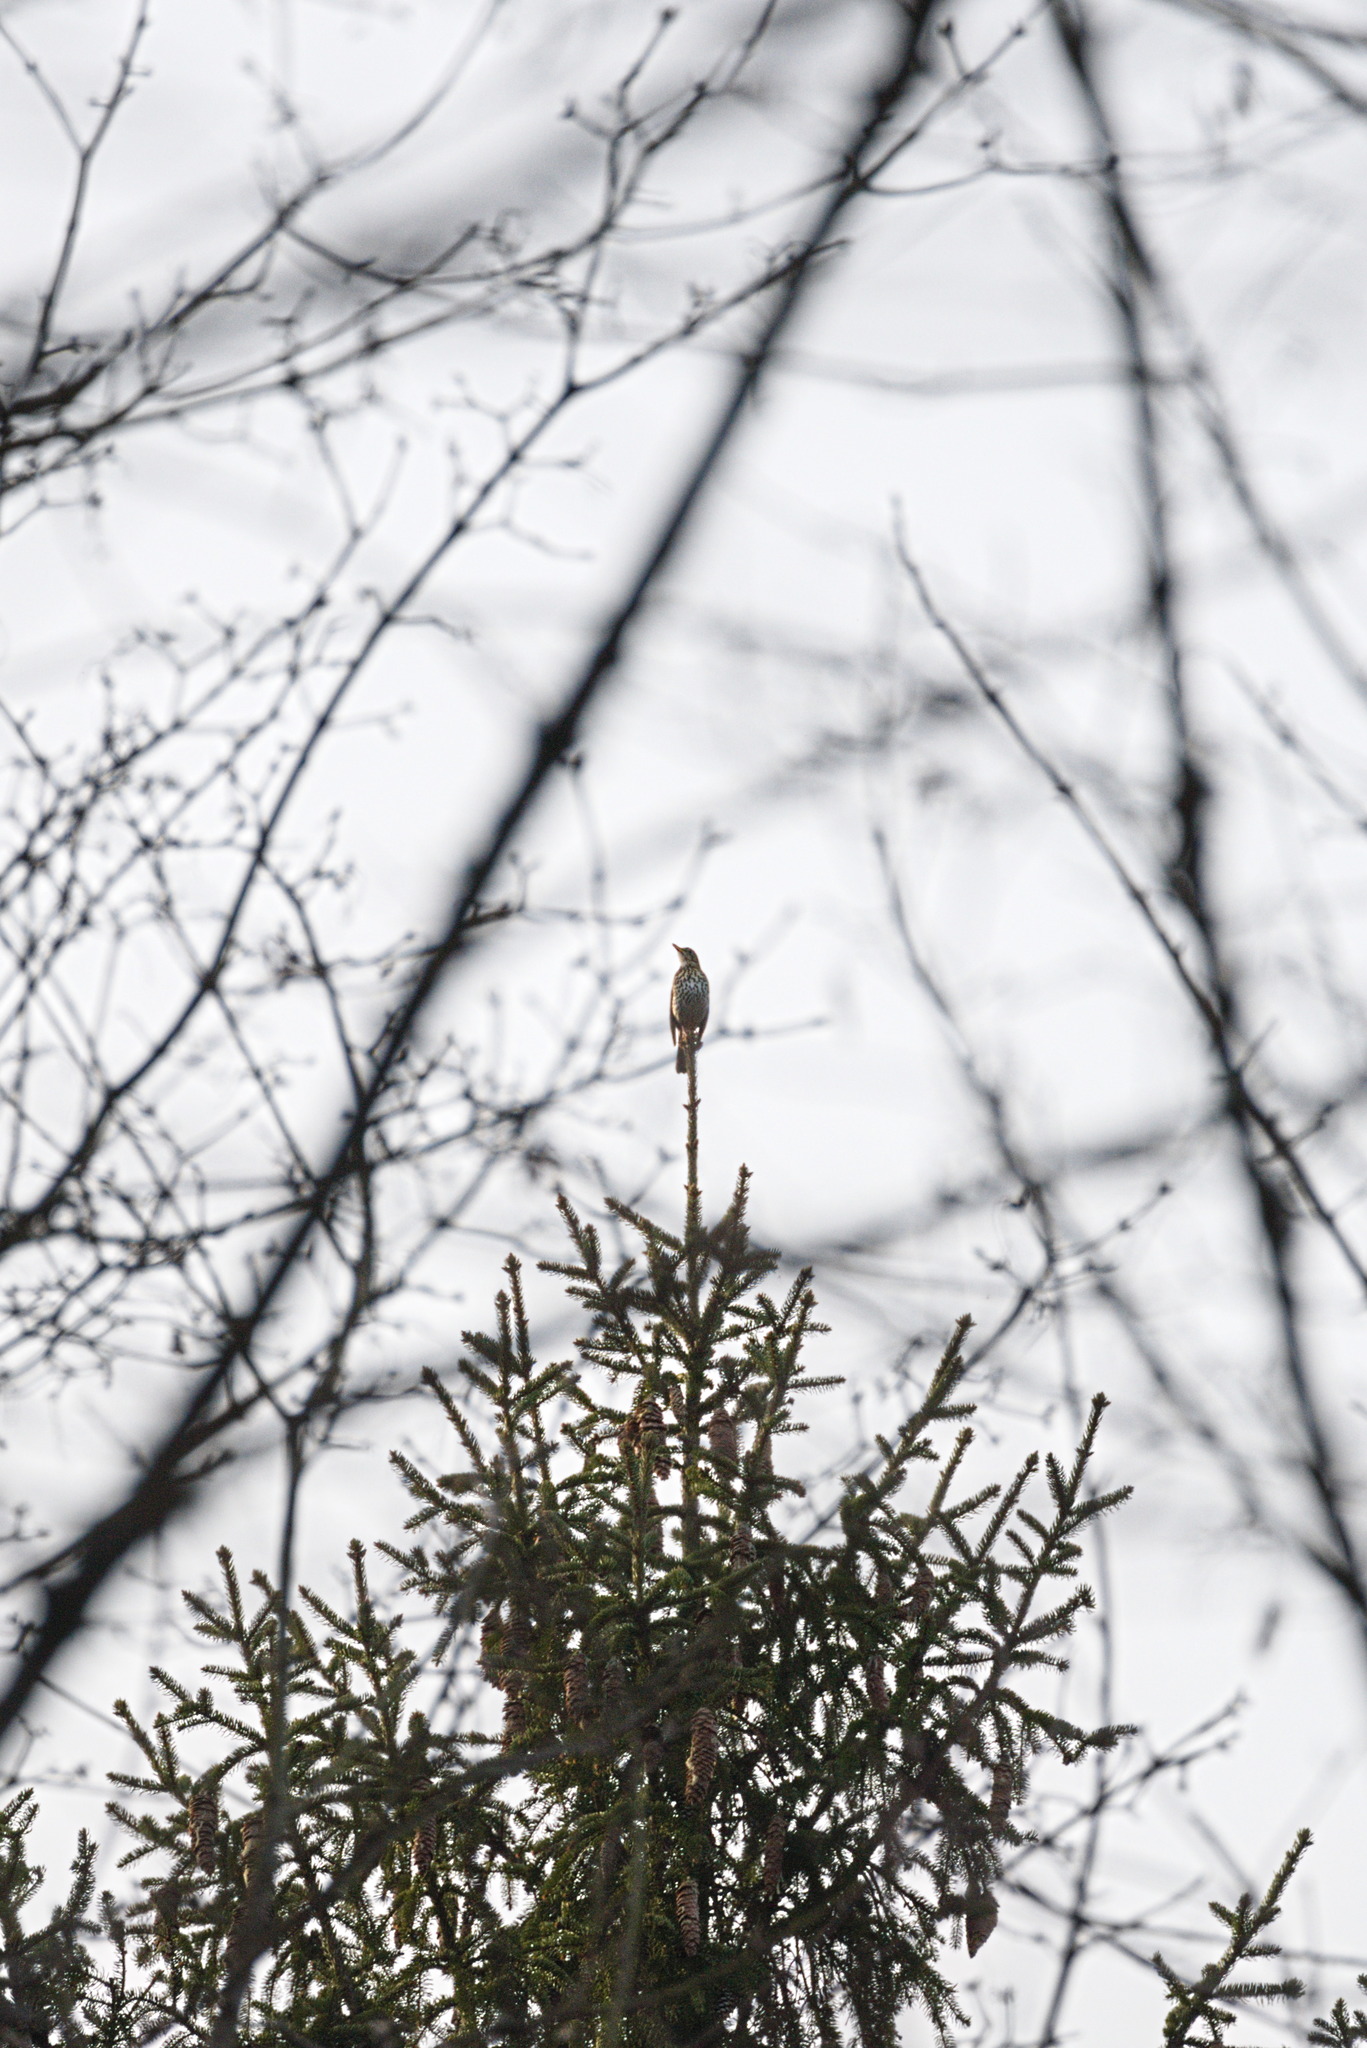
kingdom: Animalia
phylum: Chordata
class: Aves
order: Passeriformes
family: Turdidae
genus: Turdus
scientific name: Turdus philomelos
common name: Song thrush
